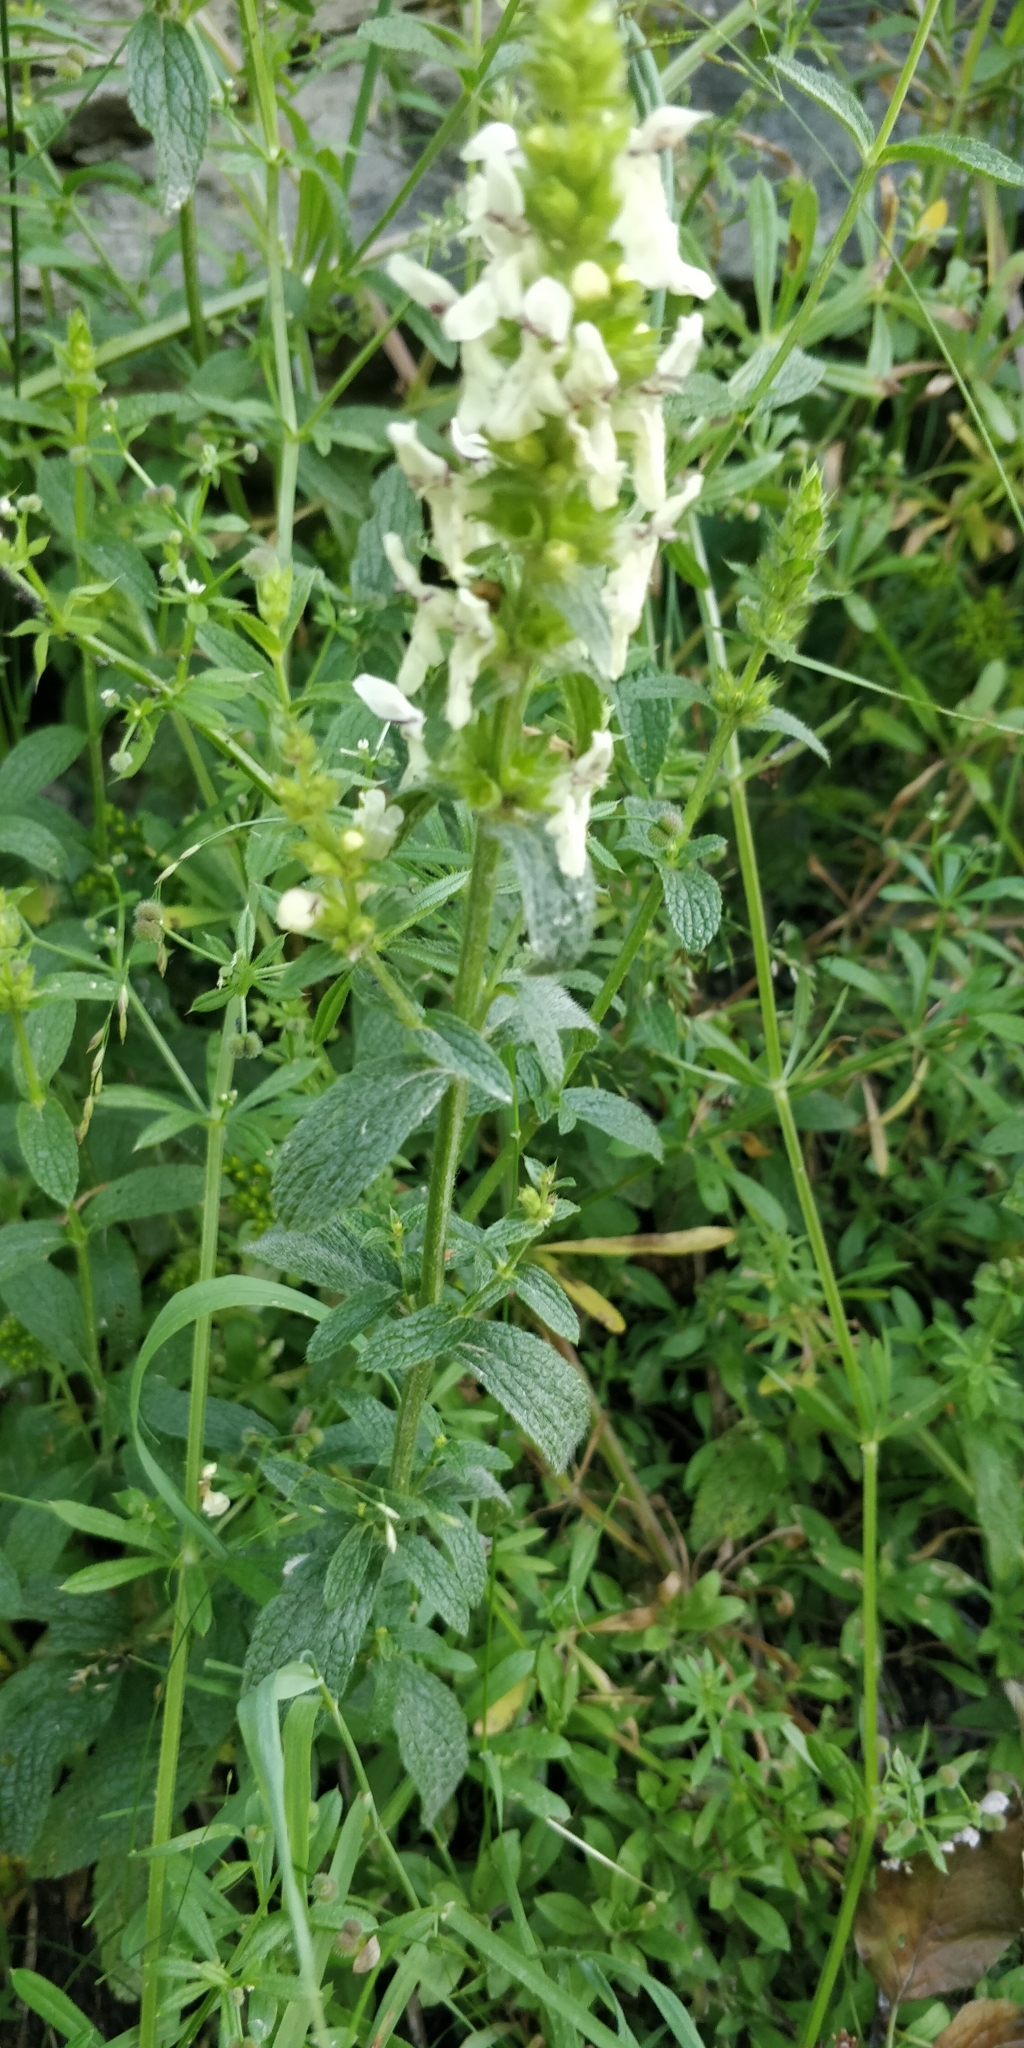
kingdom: Plantae
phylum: Tracheophyta
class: Magnoliopsida
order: Lamiales
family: Lamiaceae
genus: Stachys
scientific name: Stachys recta
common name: Perennial yellow-woundwort
